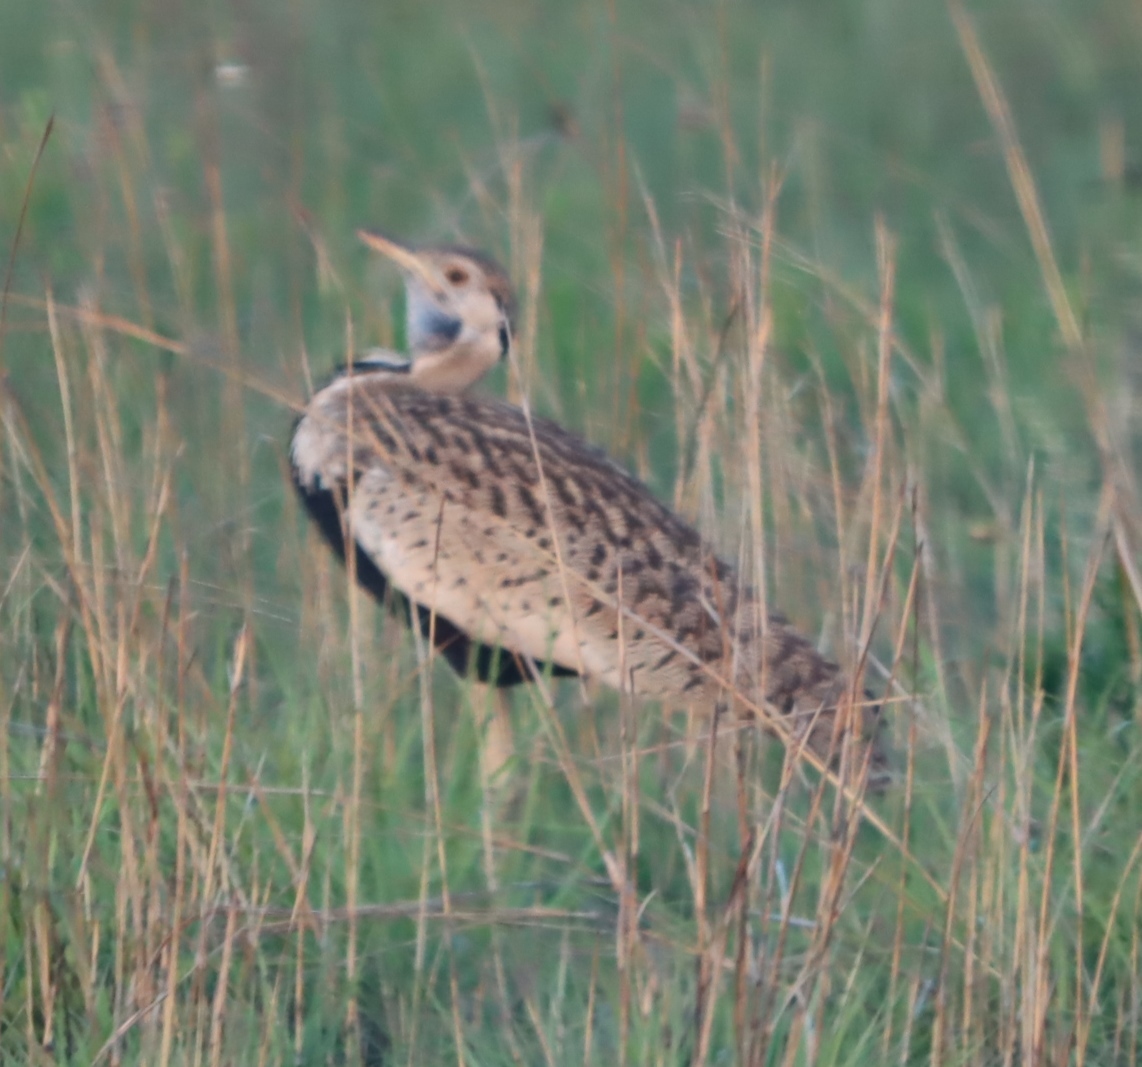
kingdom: Animalia
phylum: Chordata
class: Aves
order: Otidiformes
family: Otididae
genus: Lissotis
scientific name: Lissotis melanogaster
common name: Black-bellied bustard
